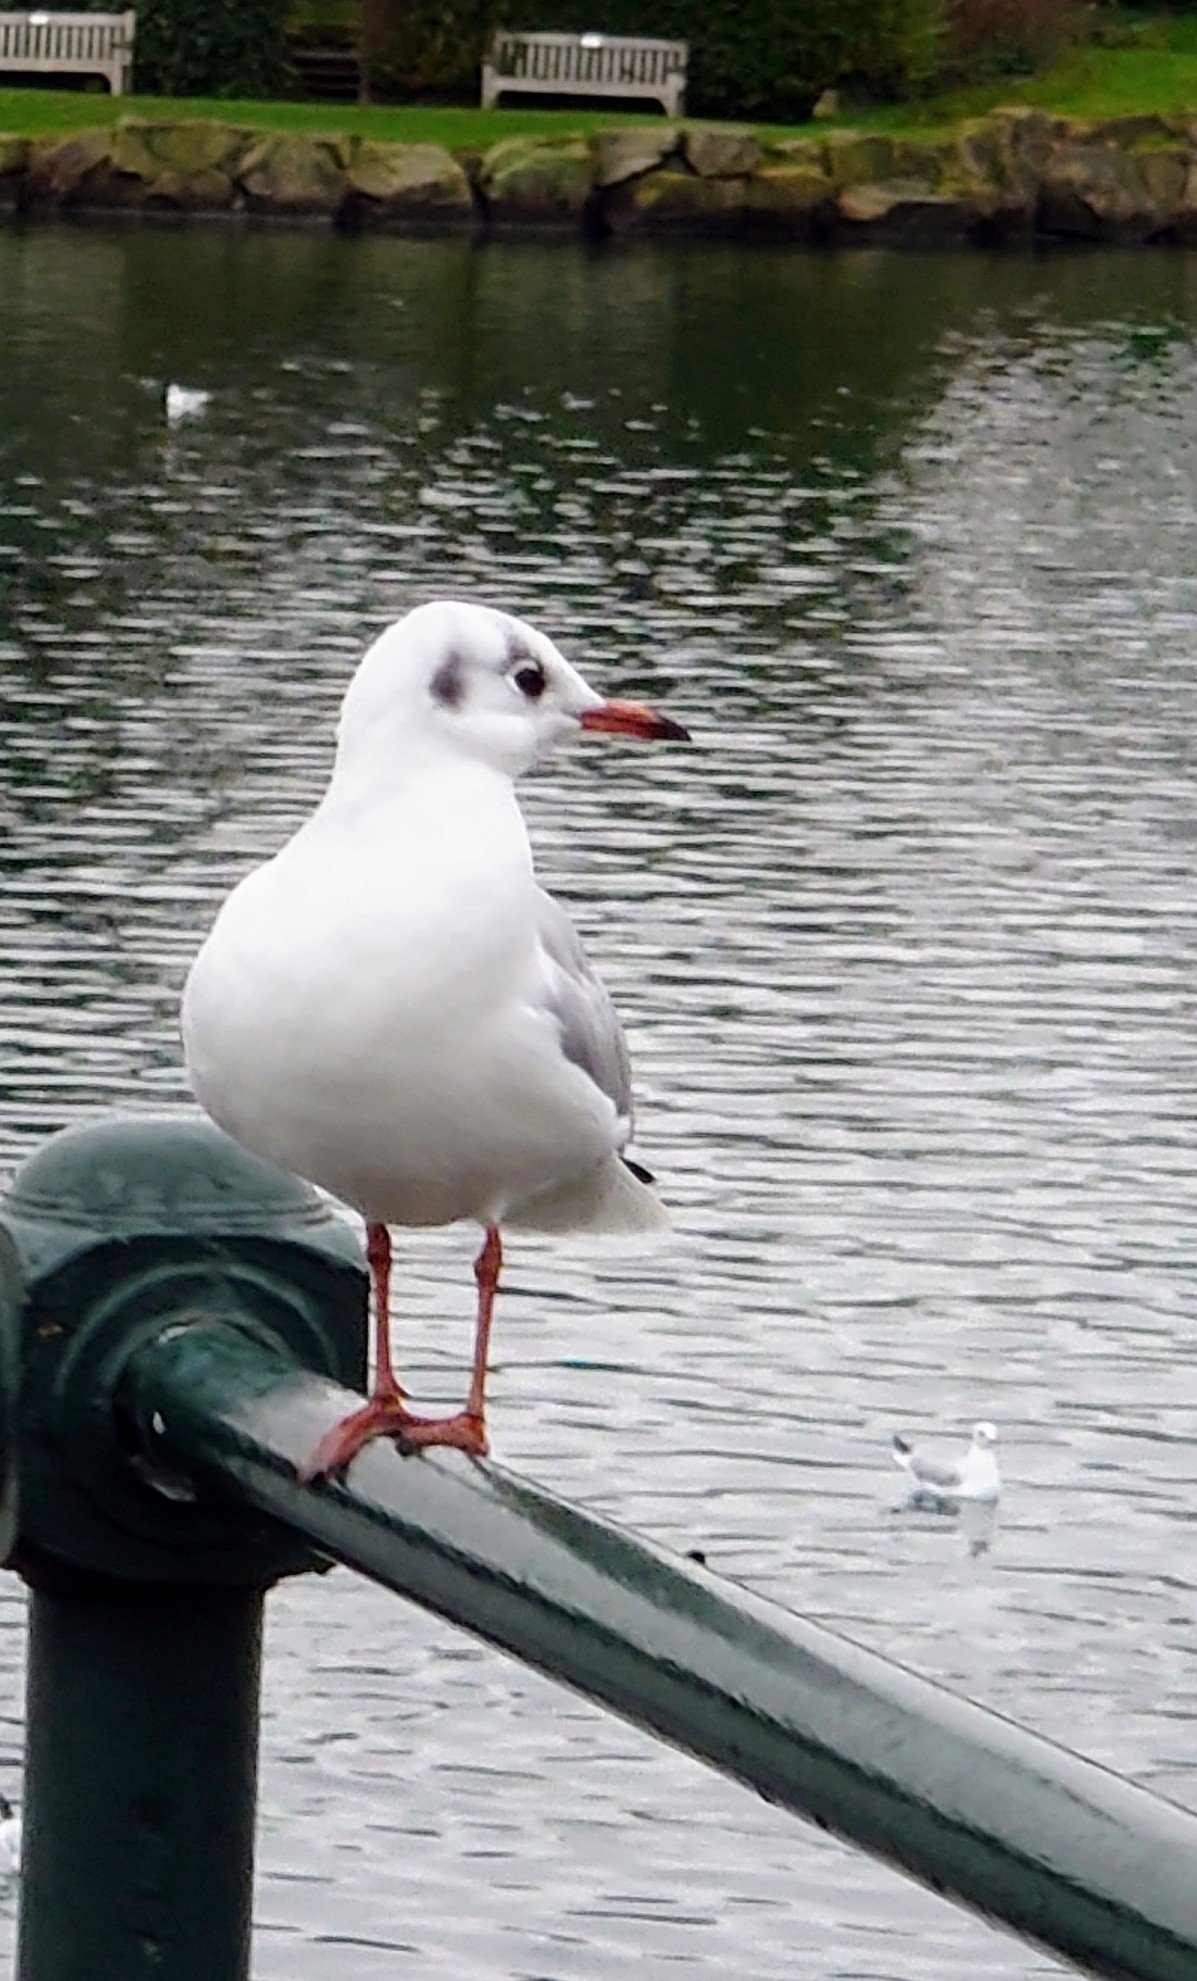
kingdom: Animalia
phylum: Chordata
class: Aves
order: Charadriiformes
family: Laridae
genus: Chroicocephalus
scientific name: Chroicocephalus ridibundus
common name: Black-headed gull
